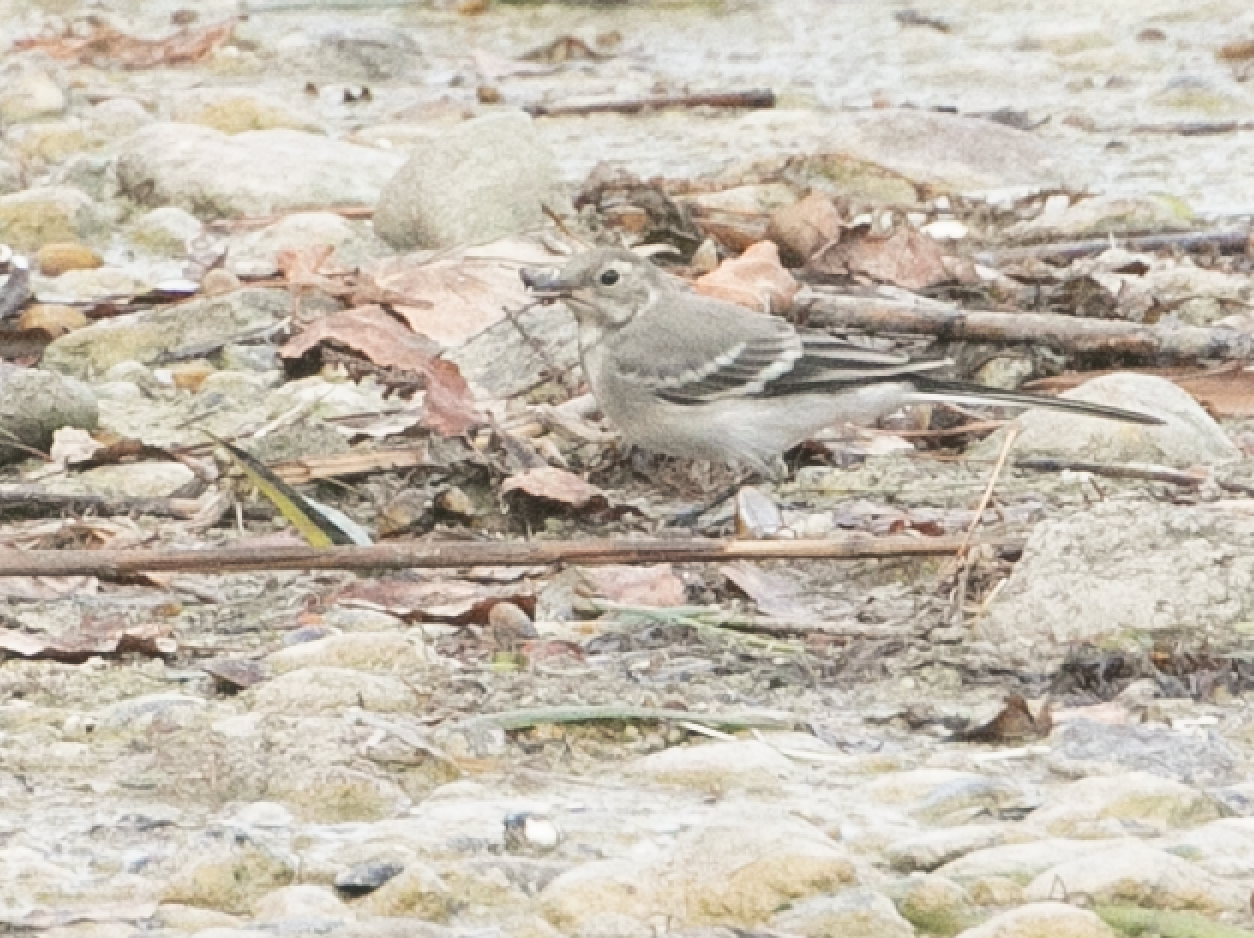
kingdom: Animalia
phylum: Chordata
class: Aves
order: Passeriformes
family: Motacillidae
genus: Motacilla
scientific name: Motacilla alba
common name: White wagtail
